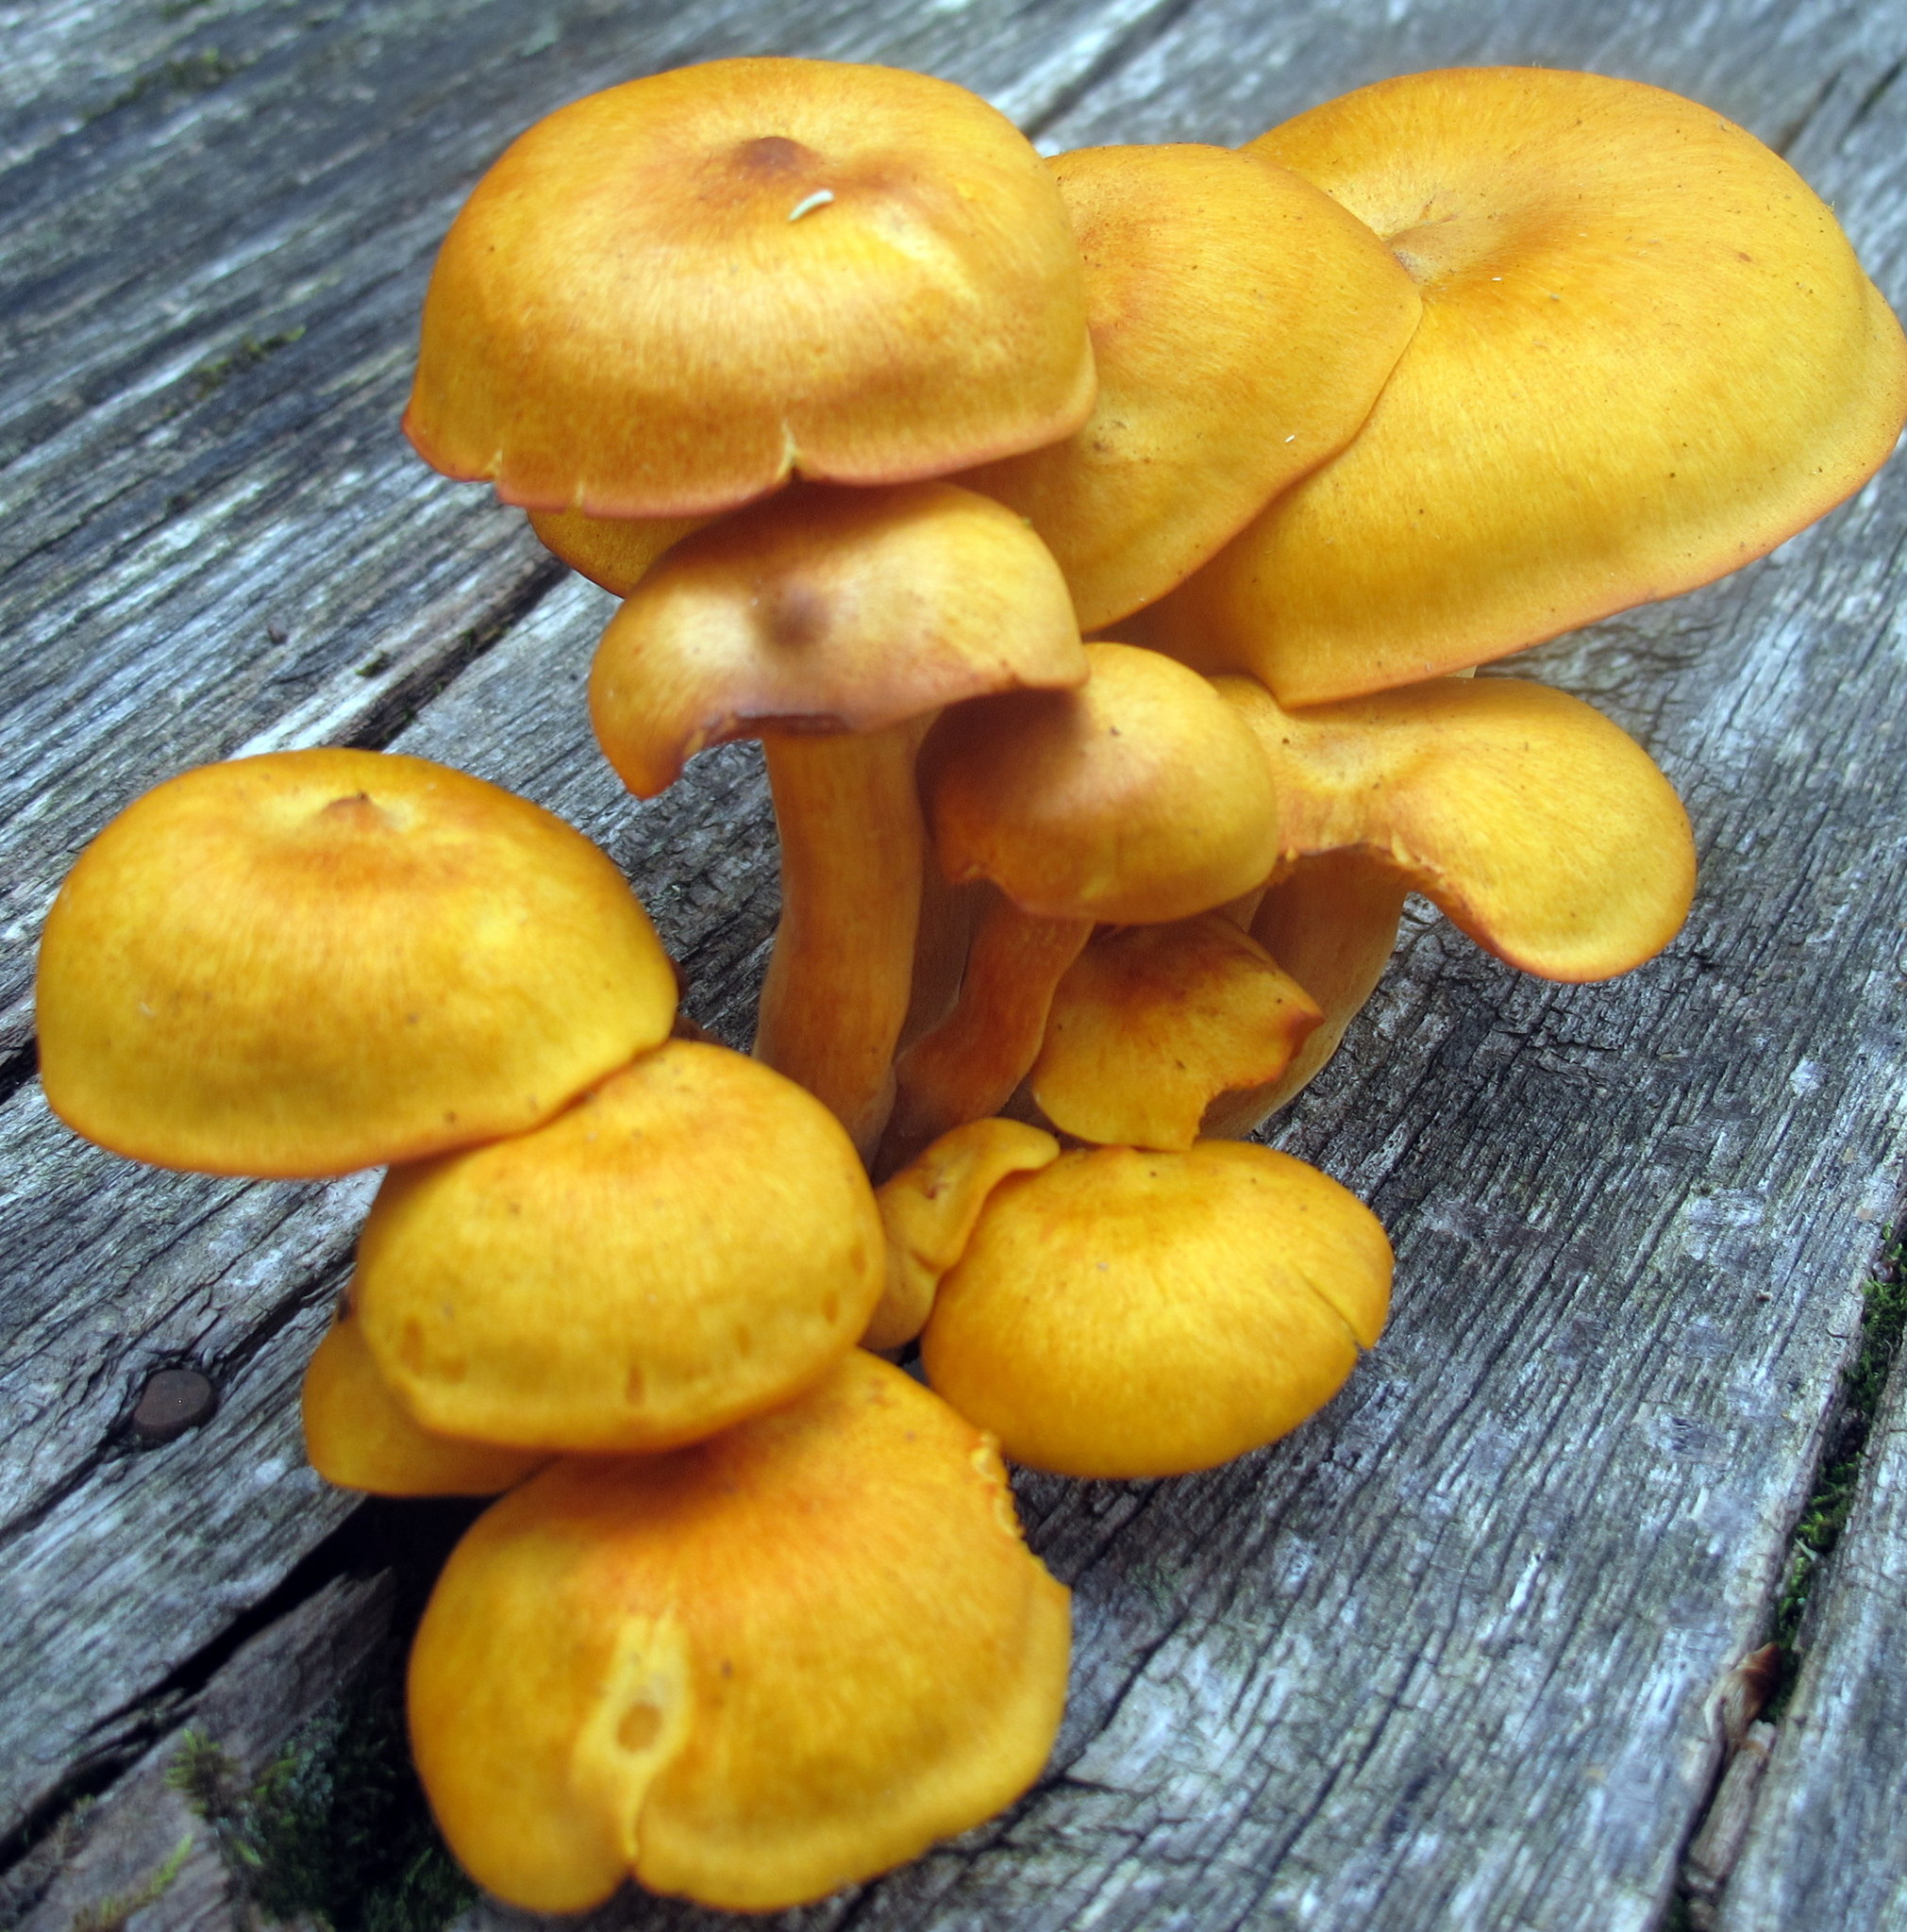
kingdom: Fungi
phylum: Basidiomycota
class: Agaricomycetes
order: Agaricales
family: Omphalotaceae
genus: Omphalotus
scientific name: Omphalotus illudens
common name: Jack o lantern
